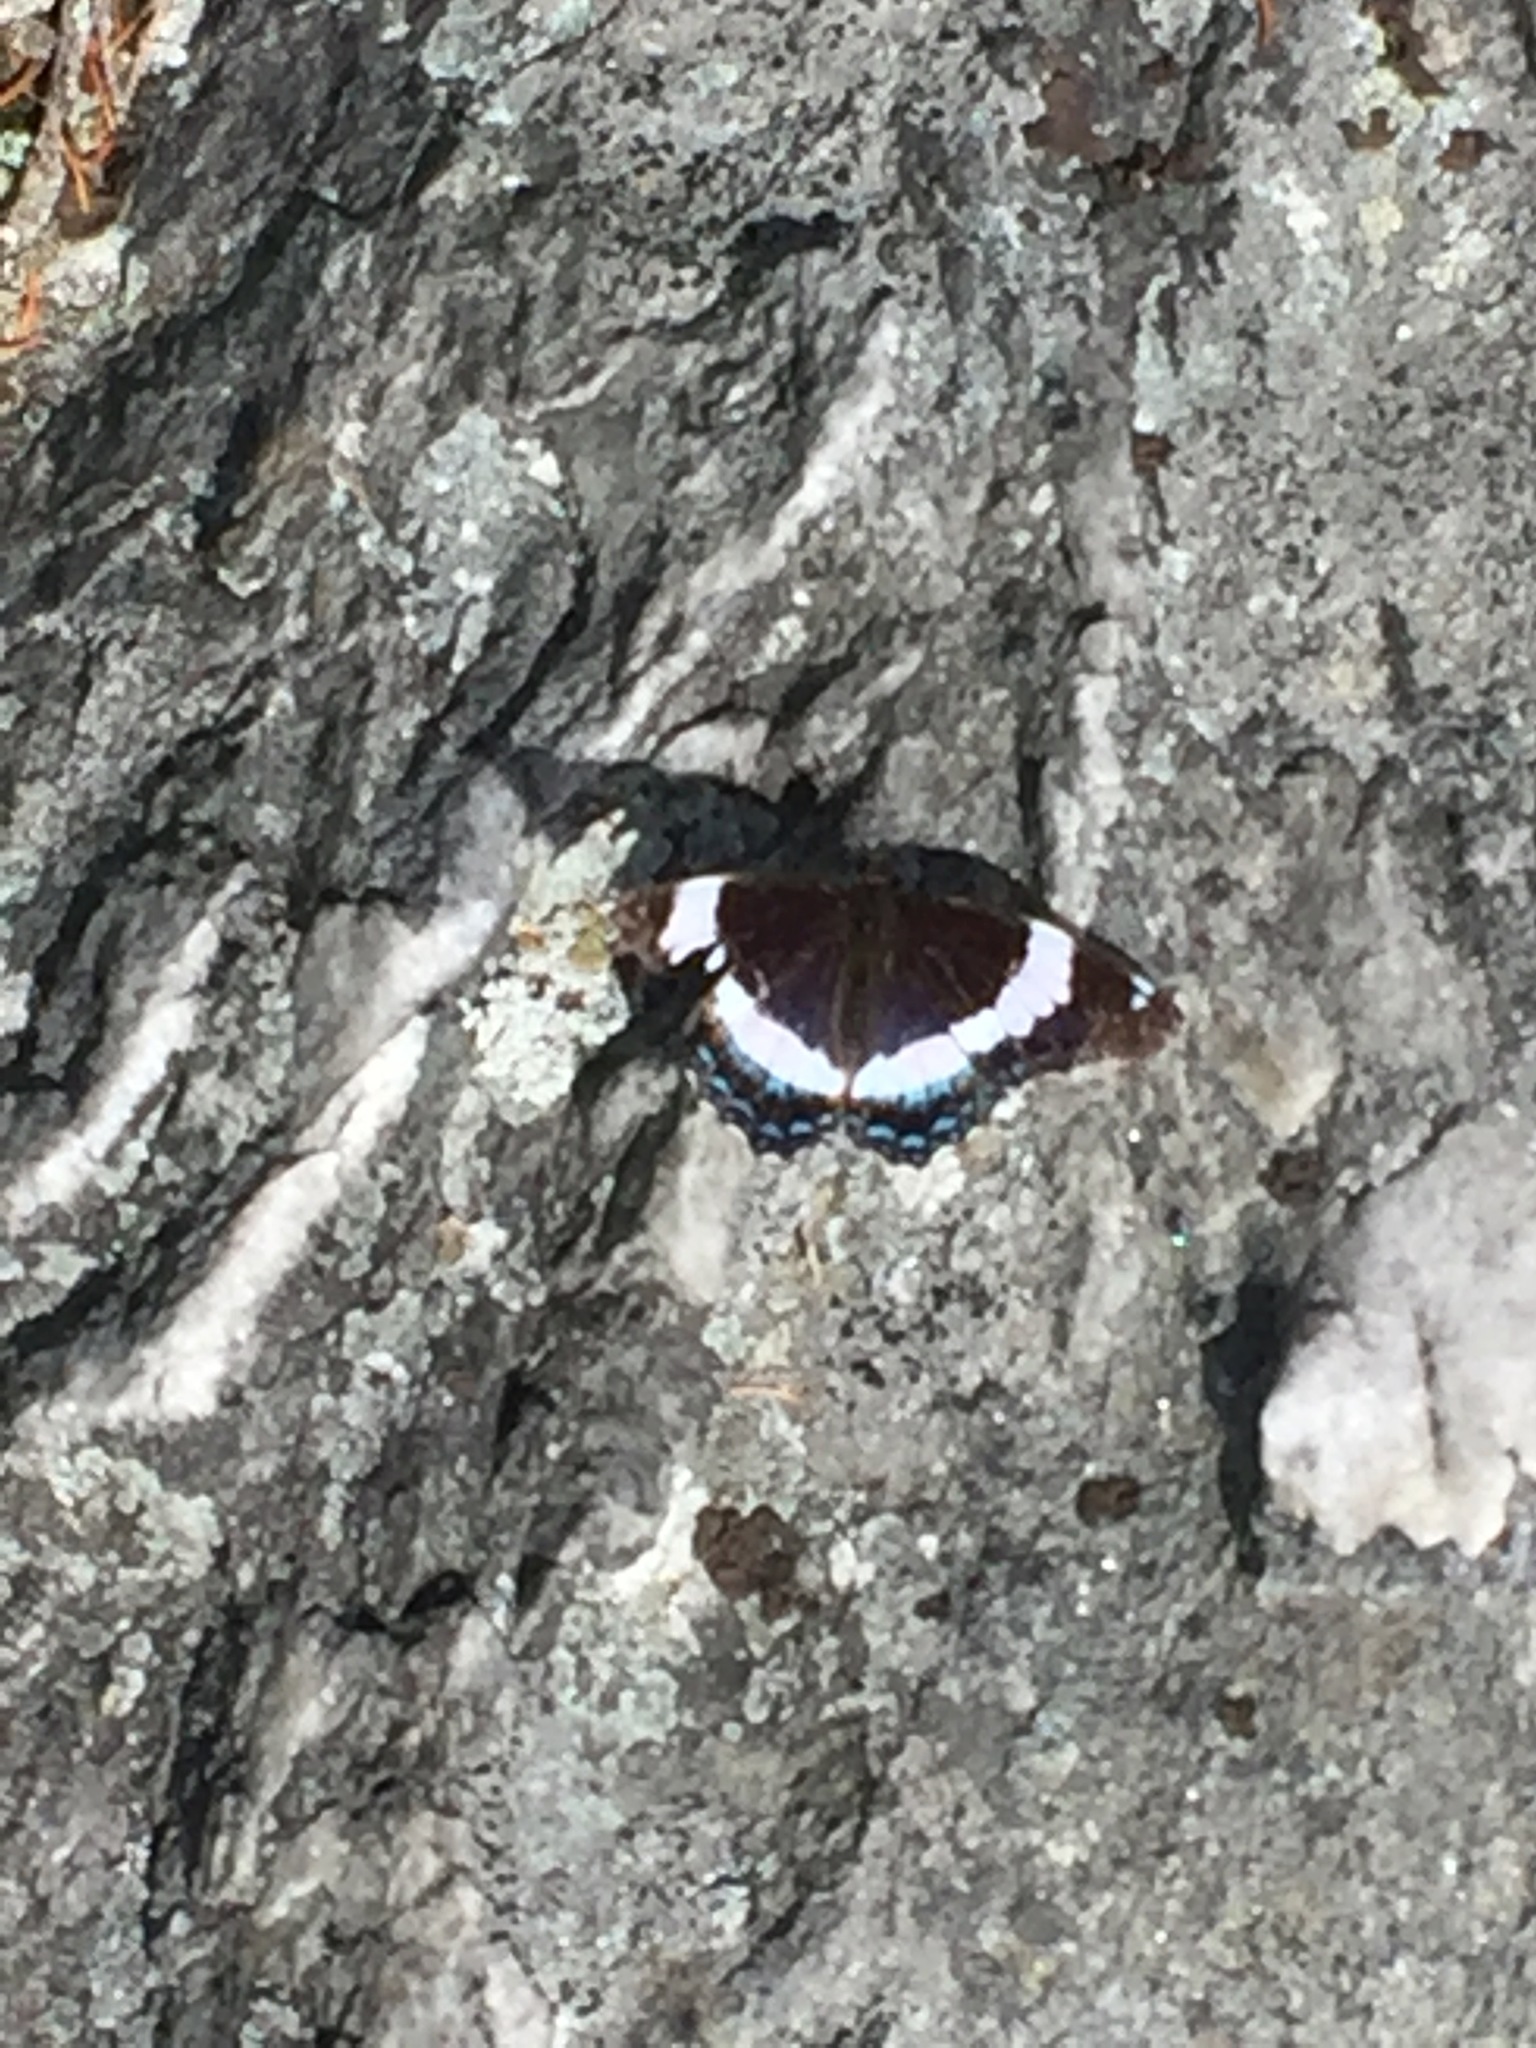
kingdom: Animalia
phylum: Arthropoda
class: Insecta
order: Lepidoptera
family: Nymphalidae
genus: Limenitis
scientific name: Limenitis arthemis
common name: Red-spotted admiral
